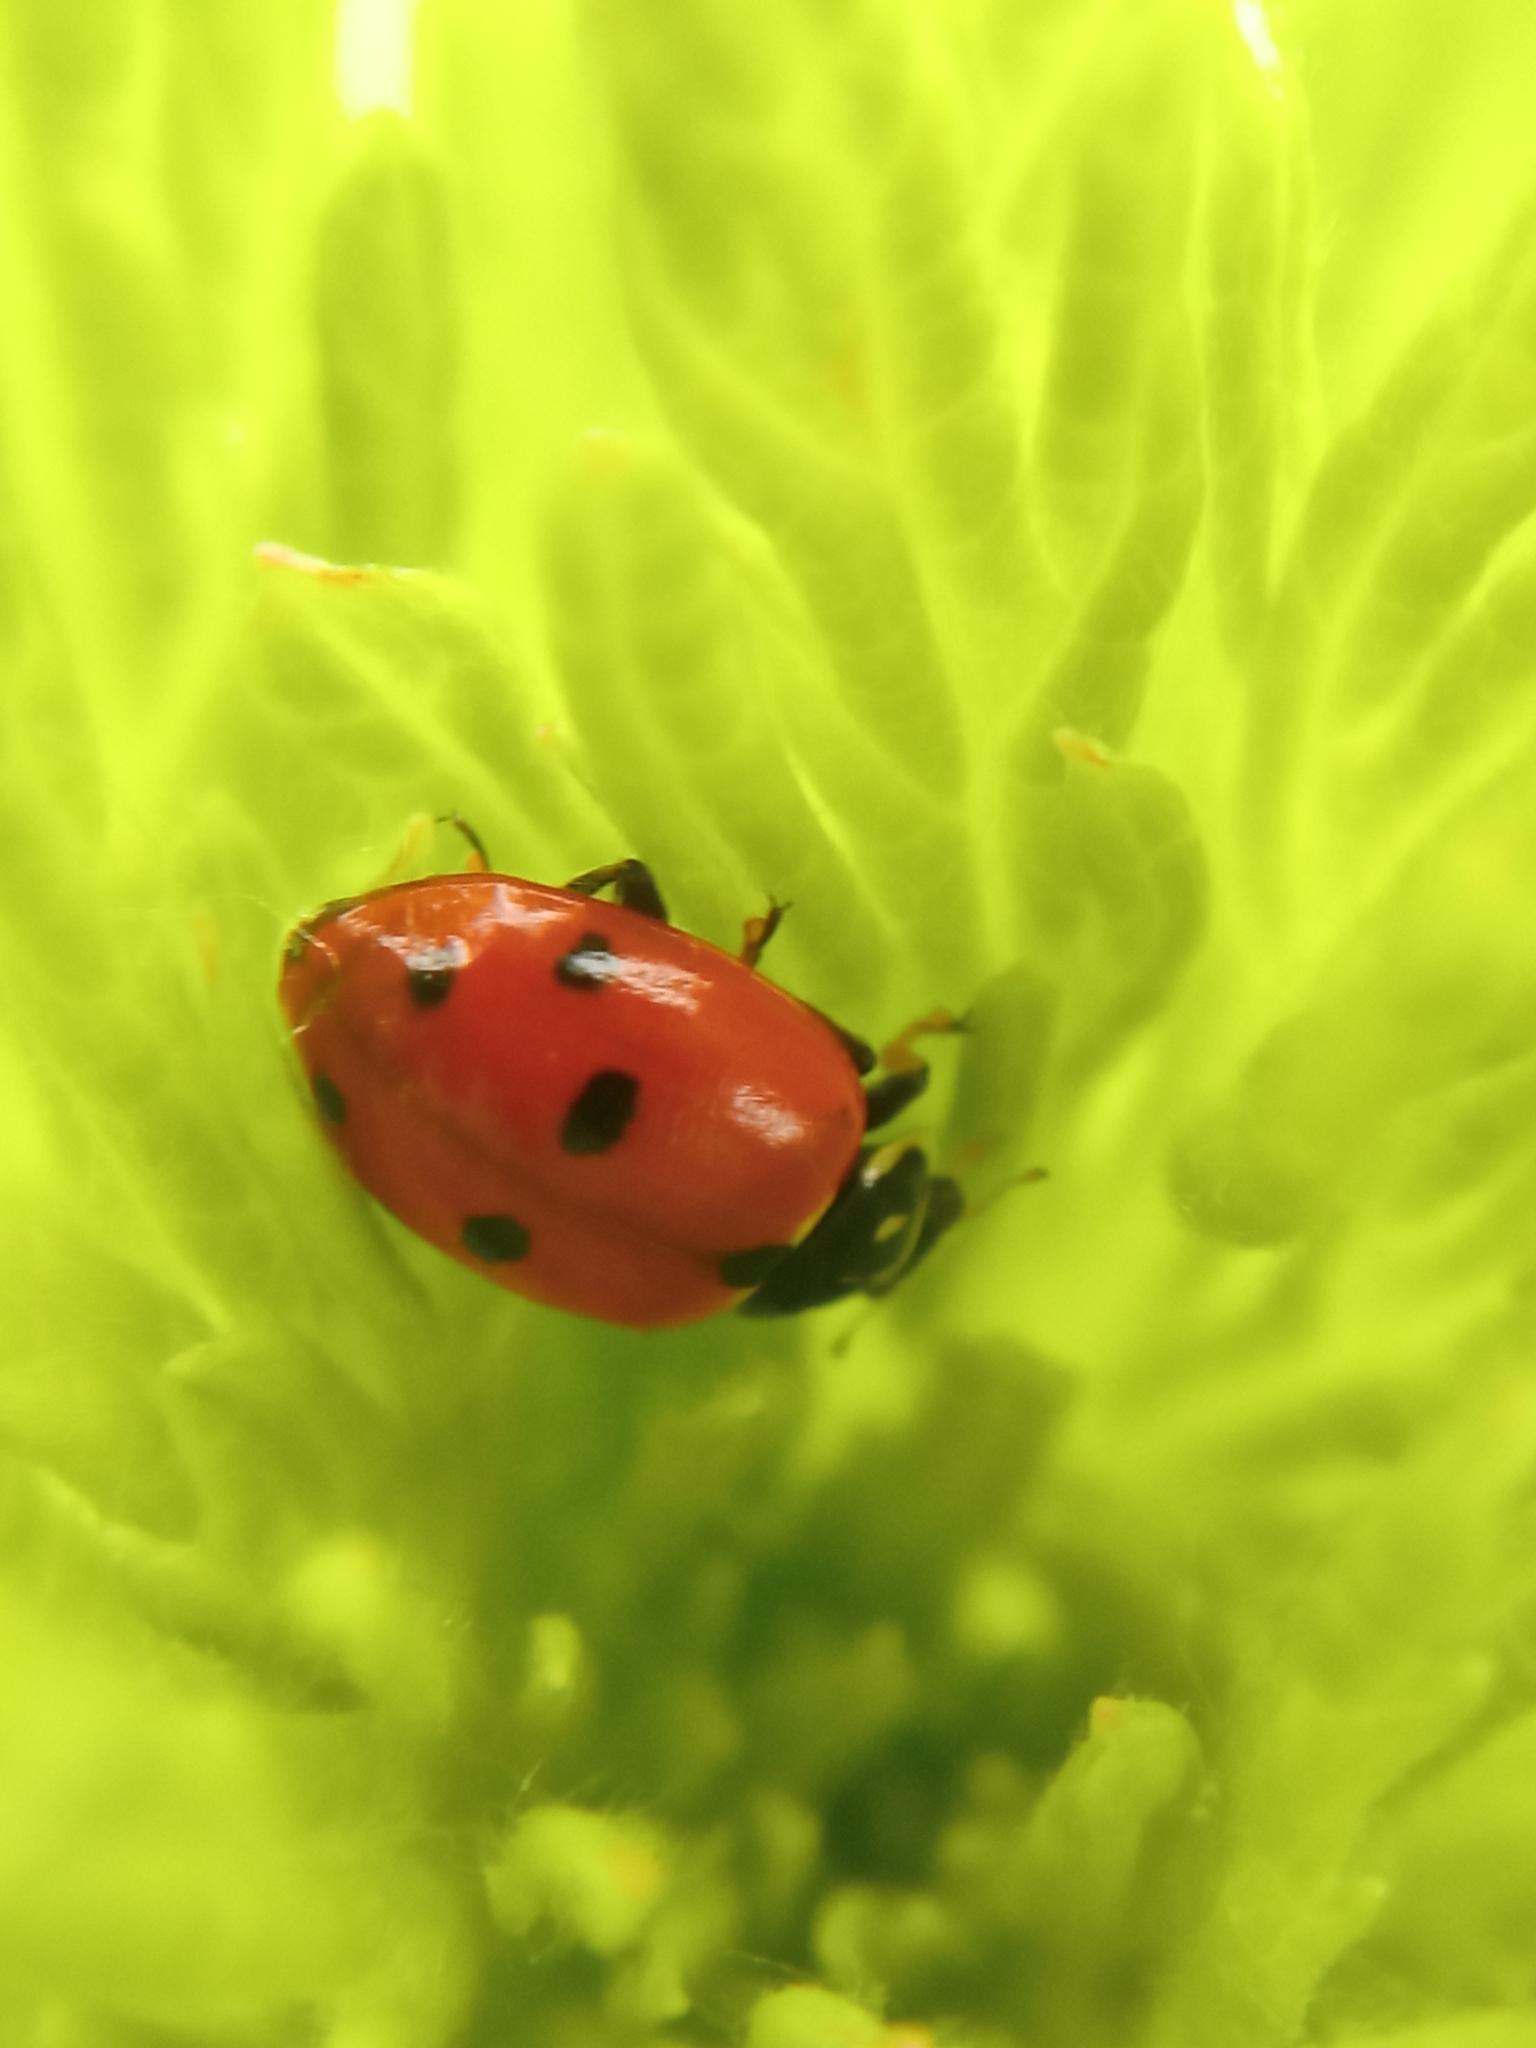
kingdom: Animalia
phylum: Arthropoda
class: Insecta
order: Coleoptera
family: Coccinellidae
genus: Hippodamia
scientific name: Hippodamia variegata
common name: Ladybird beetle
